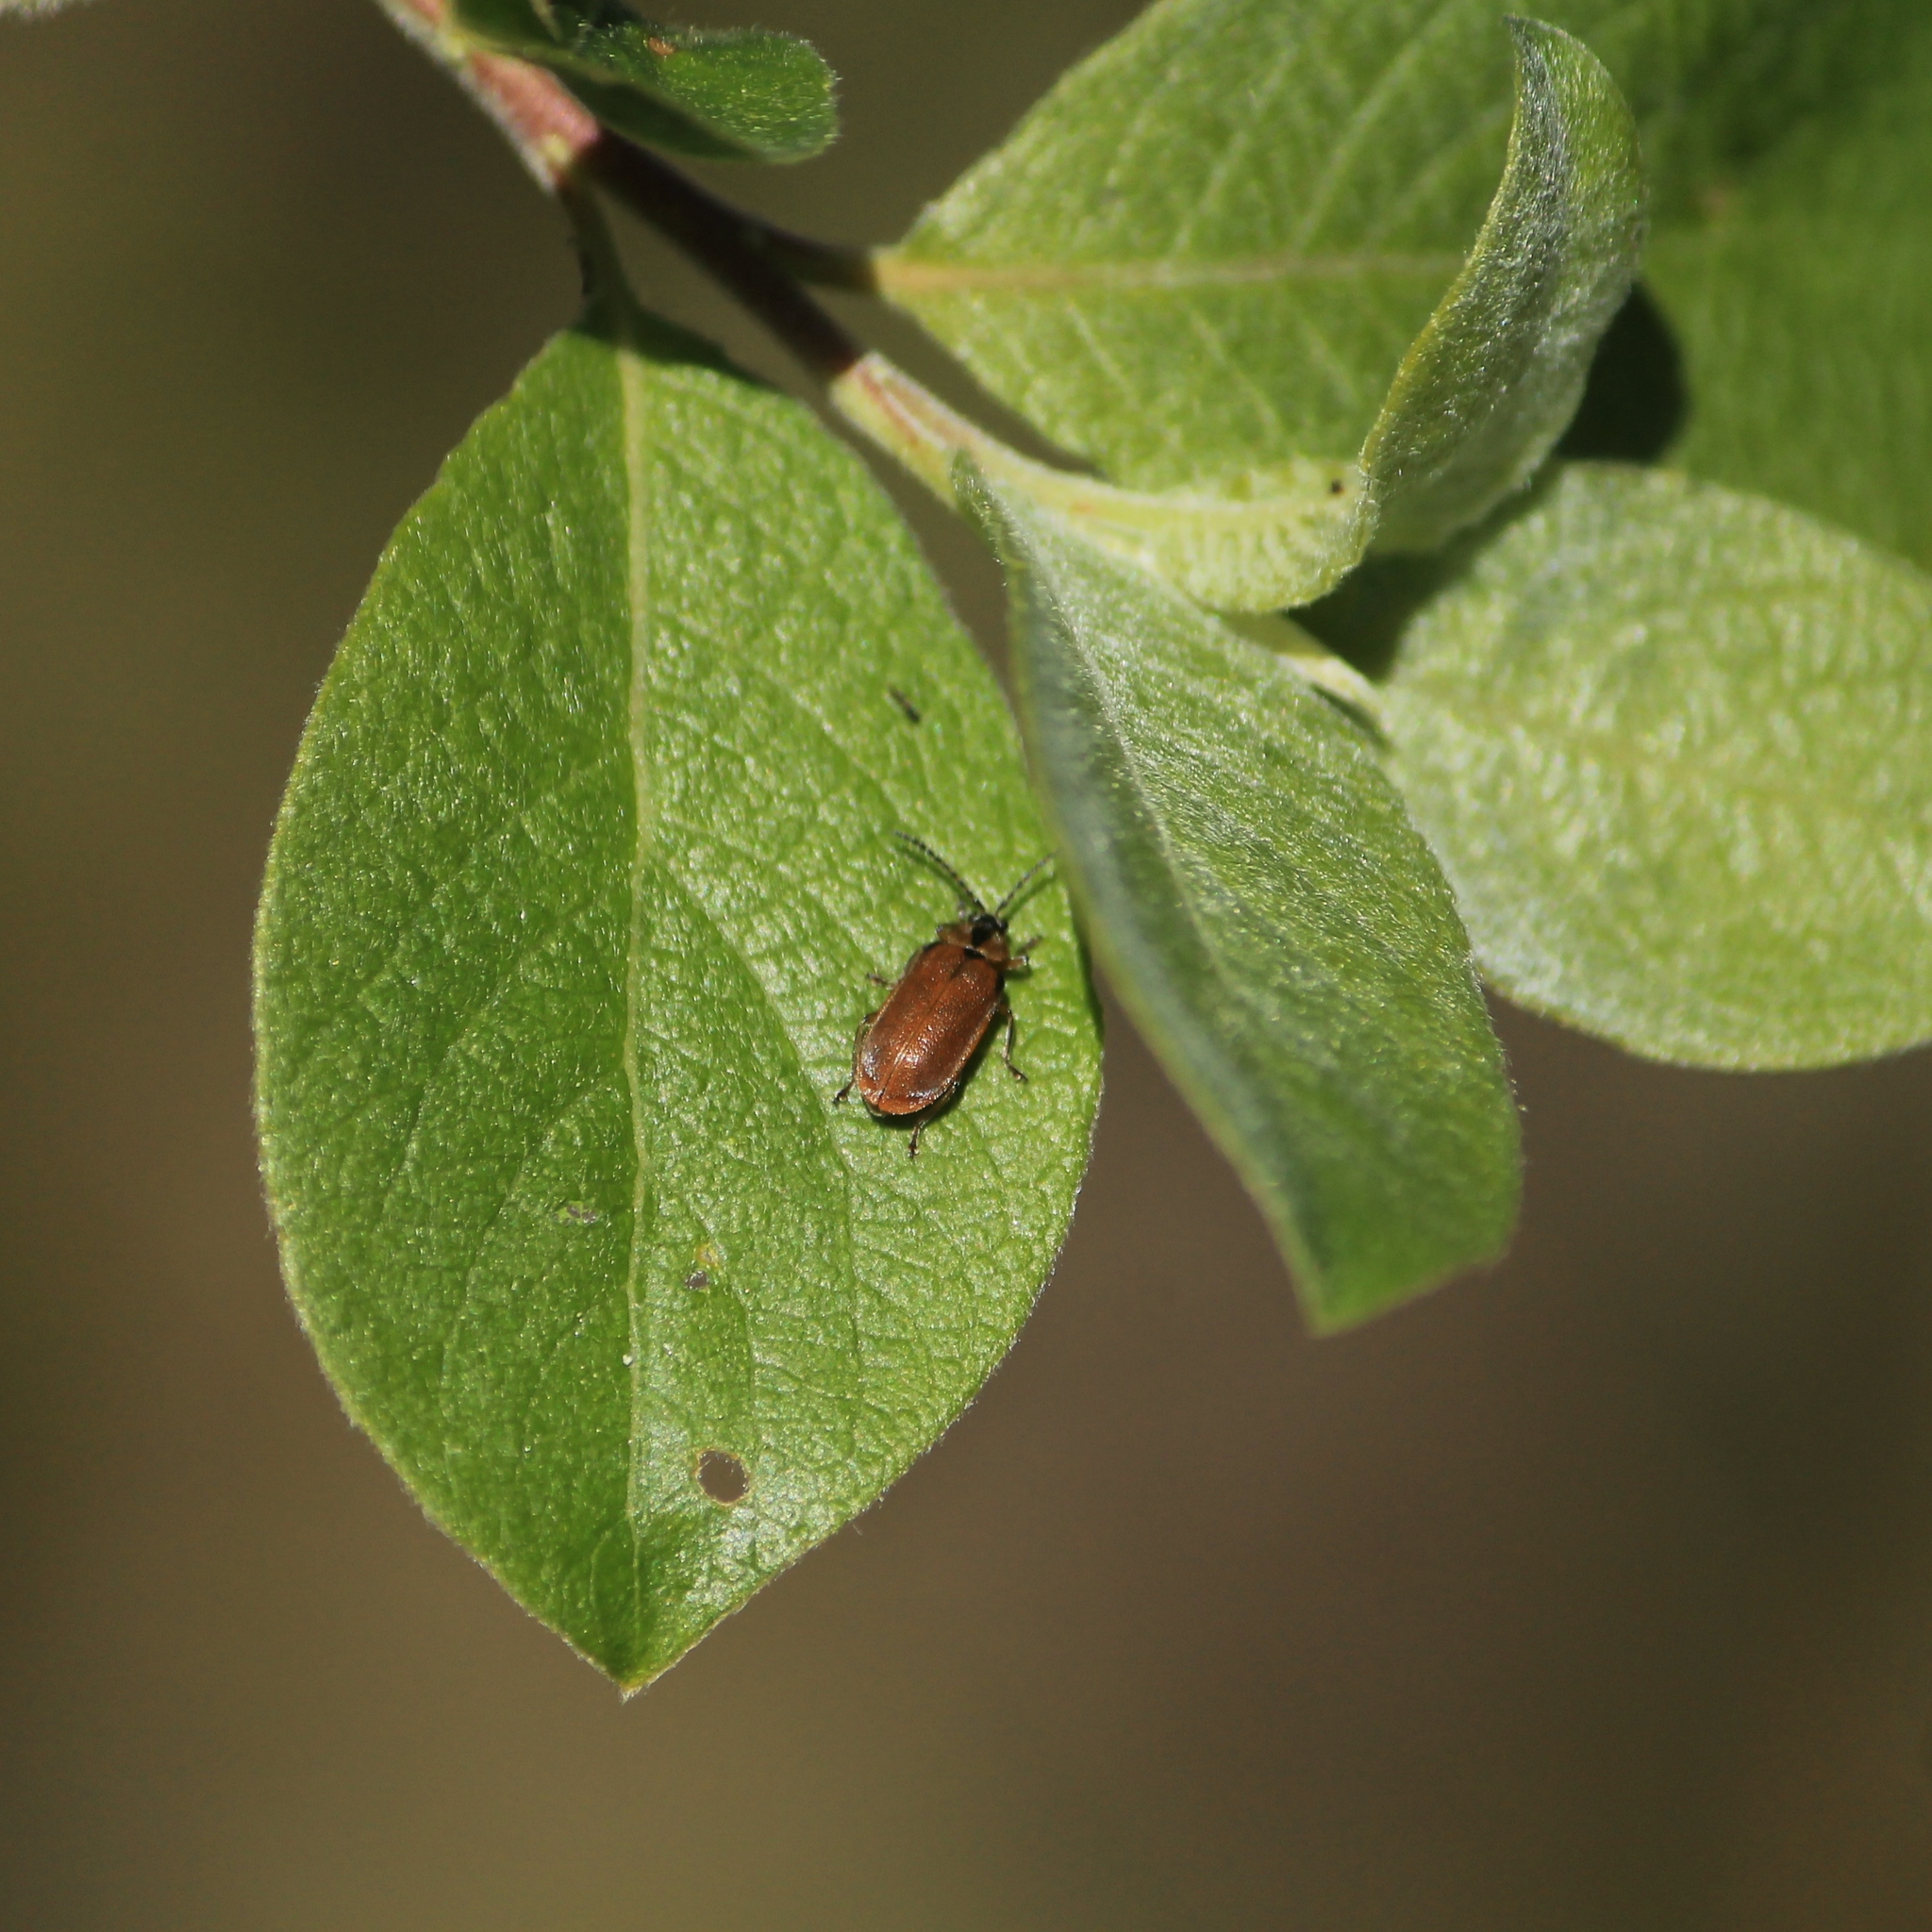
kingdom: Animalia
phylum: Arthropoda
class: Insecta
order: Coleoptera
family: Chrysomelidae
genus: Galerucella
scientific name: Galerucella lineola
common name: Brown willow beetle
